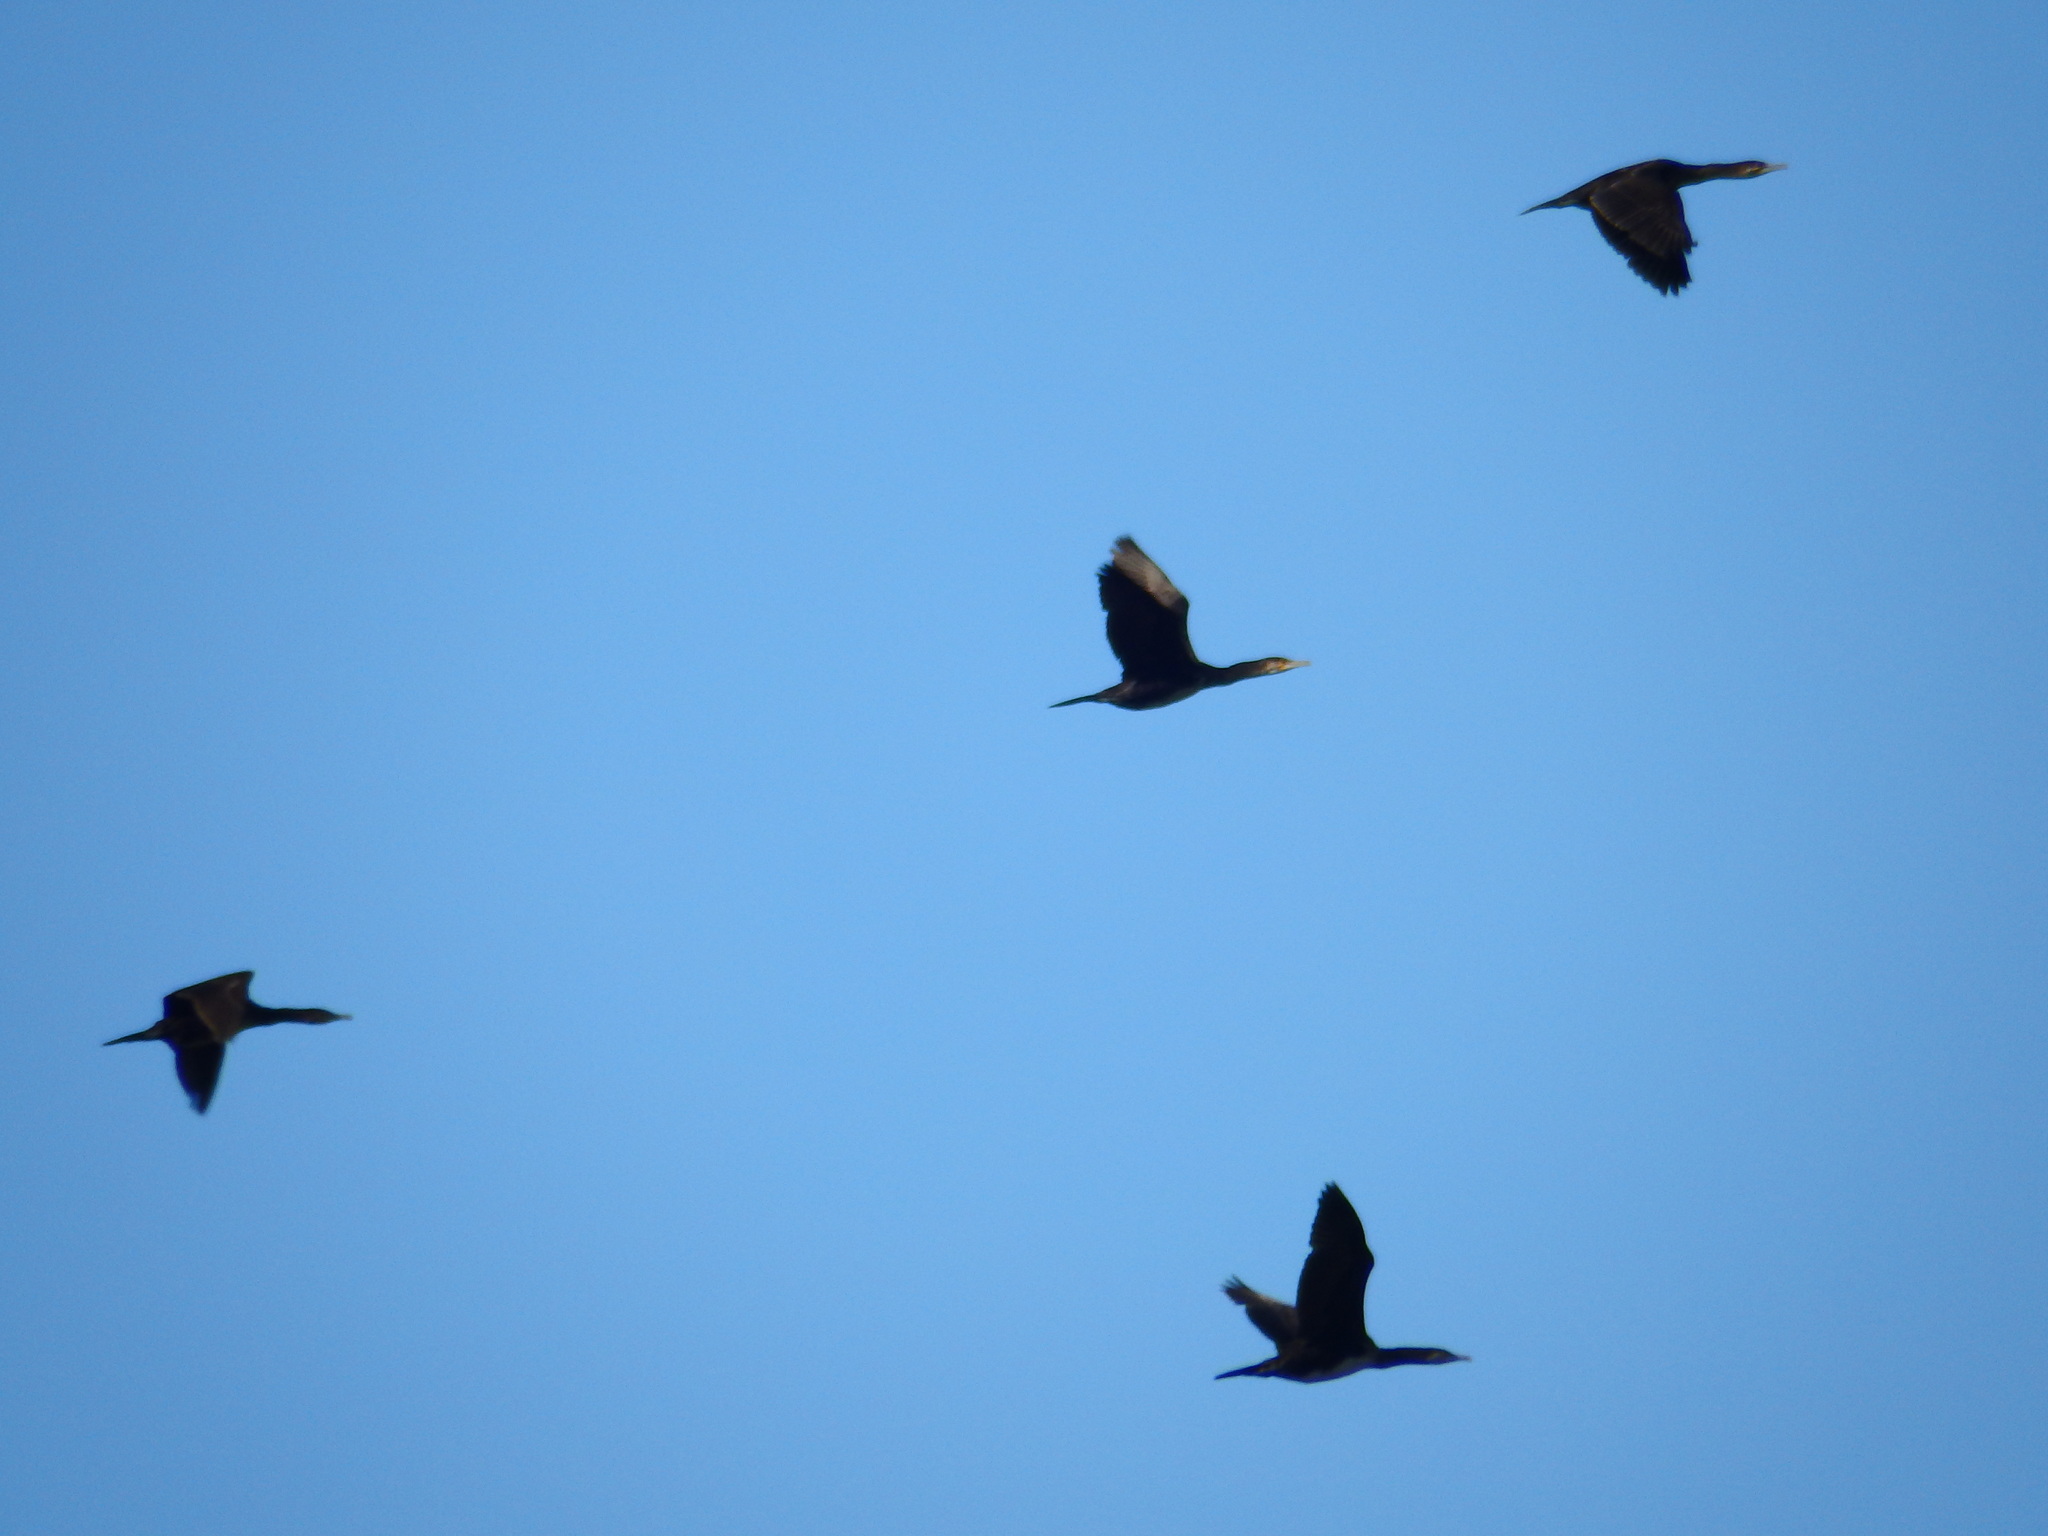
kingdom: Animalia
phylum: Chordata
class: Aves
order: Suliformes
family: Phalacrocoracidae
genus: Phalacrocorax
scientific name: Phalacrocorax carbo
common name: Great cormorant
